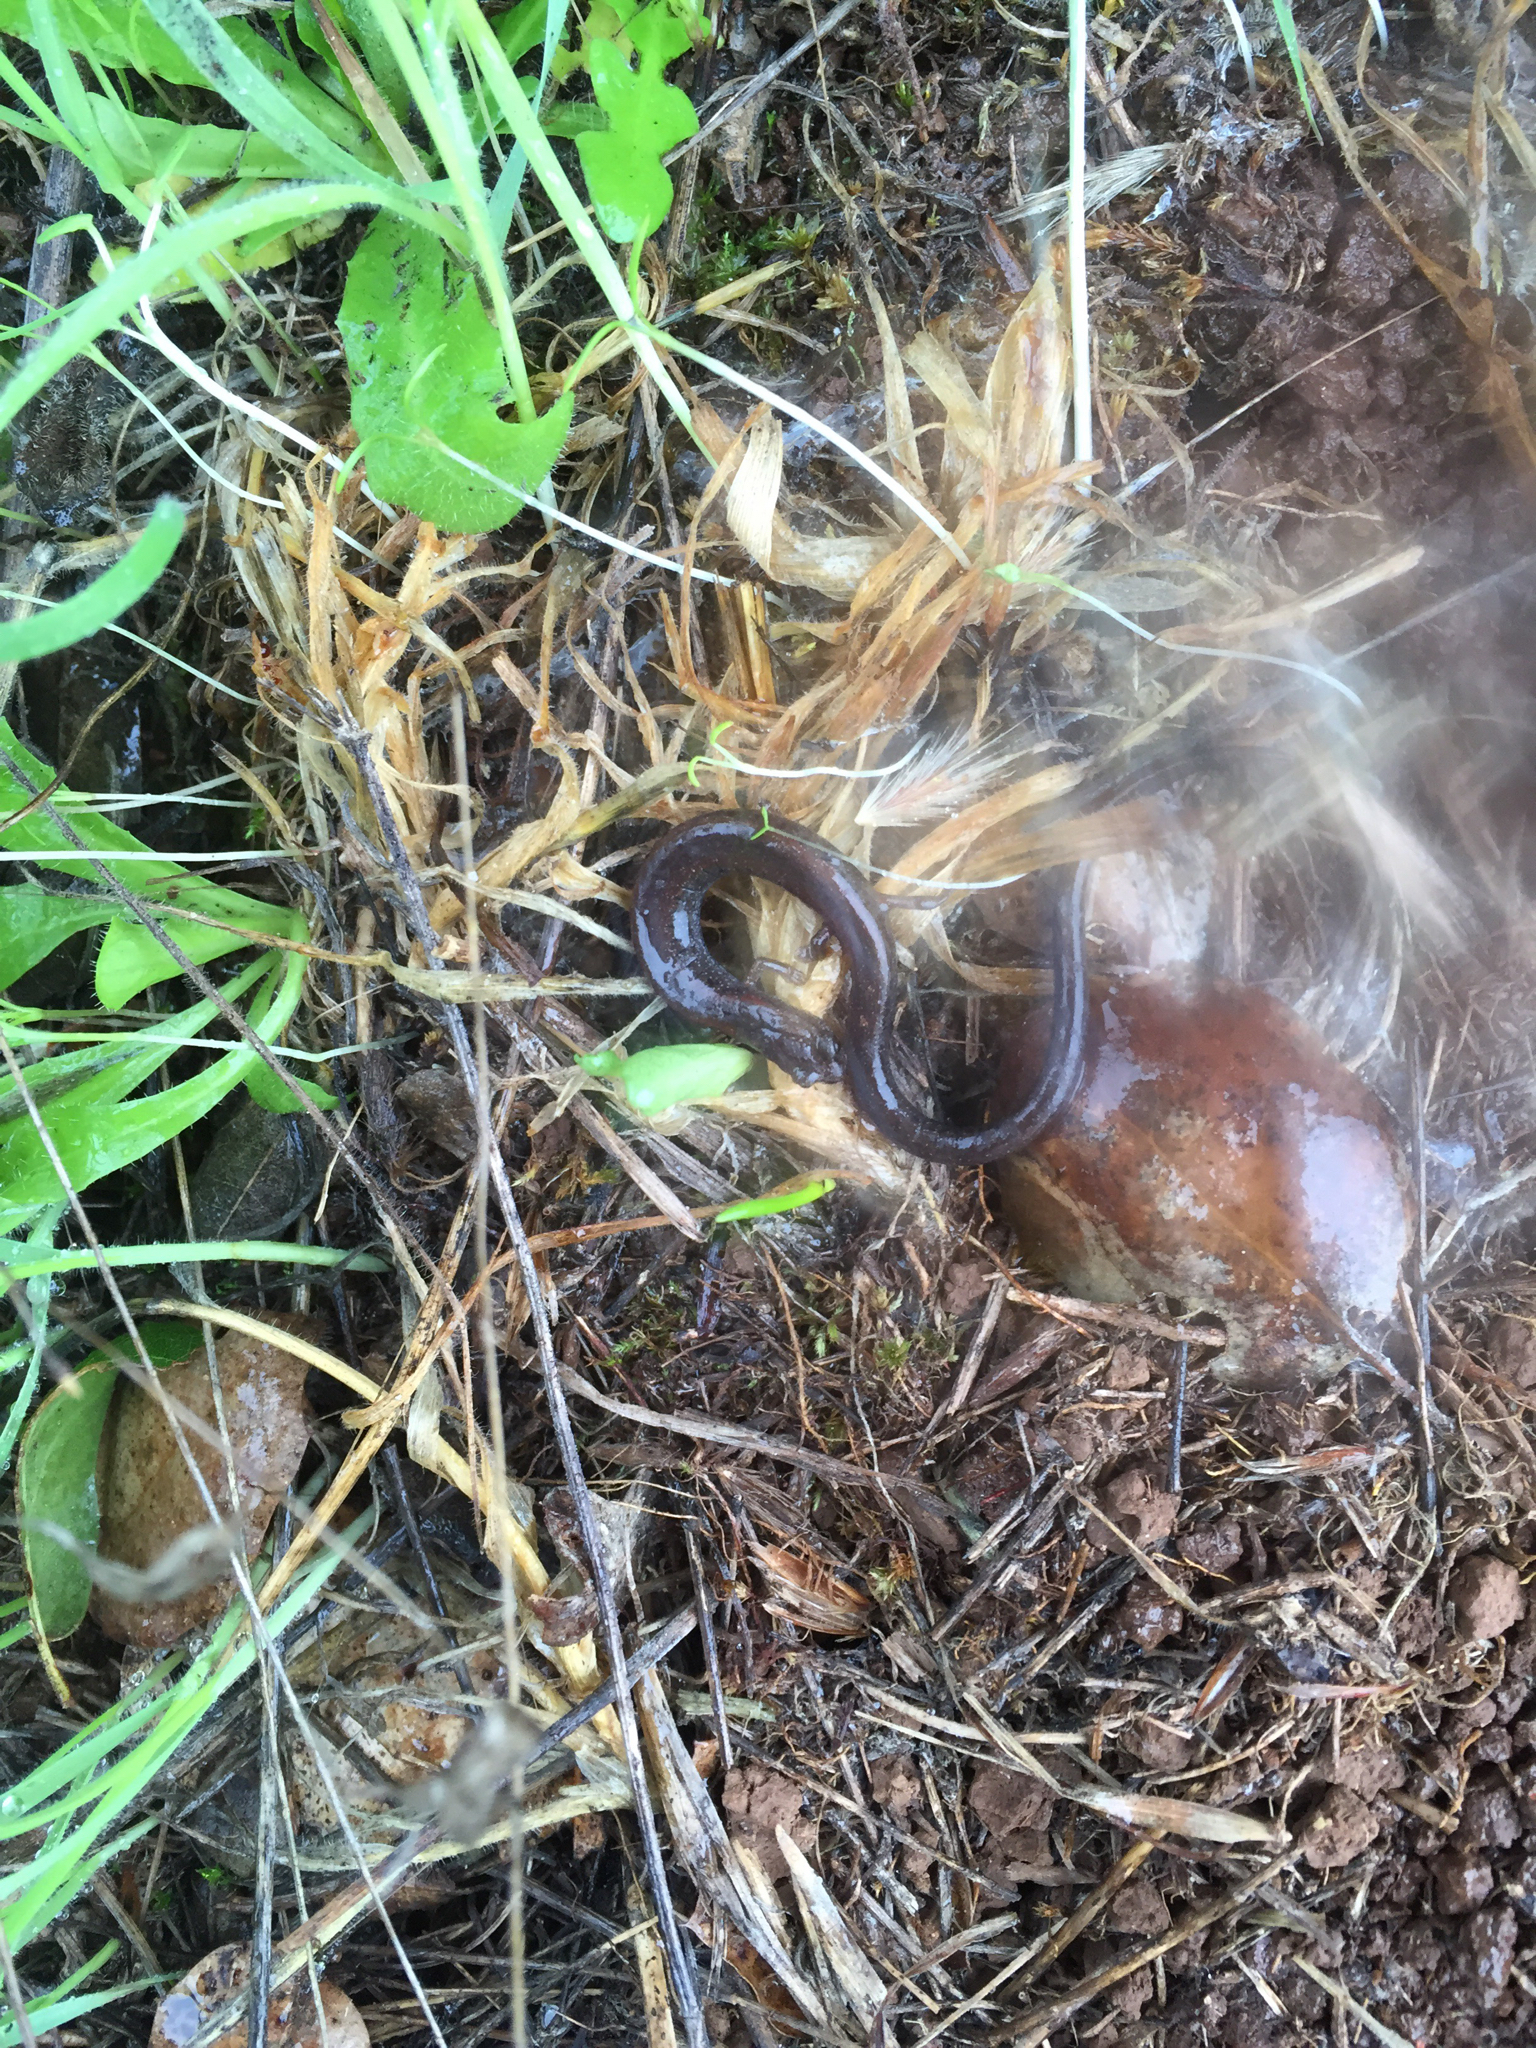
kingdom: Animalia
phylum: Chordata
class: Amphibia
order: Caudata
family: Plethodontidae
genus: Batrachoseps
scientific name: Batrachoseps attenuatus
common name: California slender salamander
